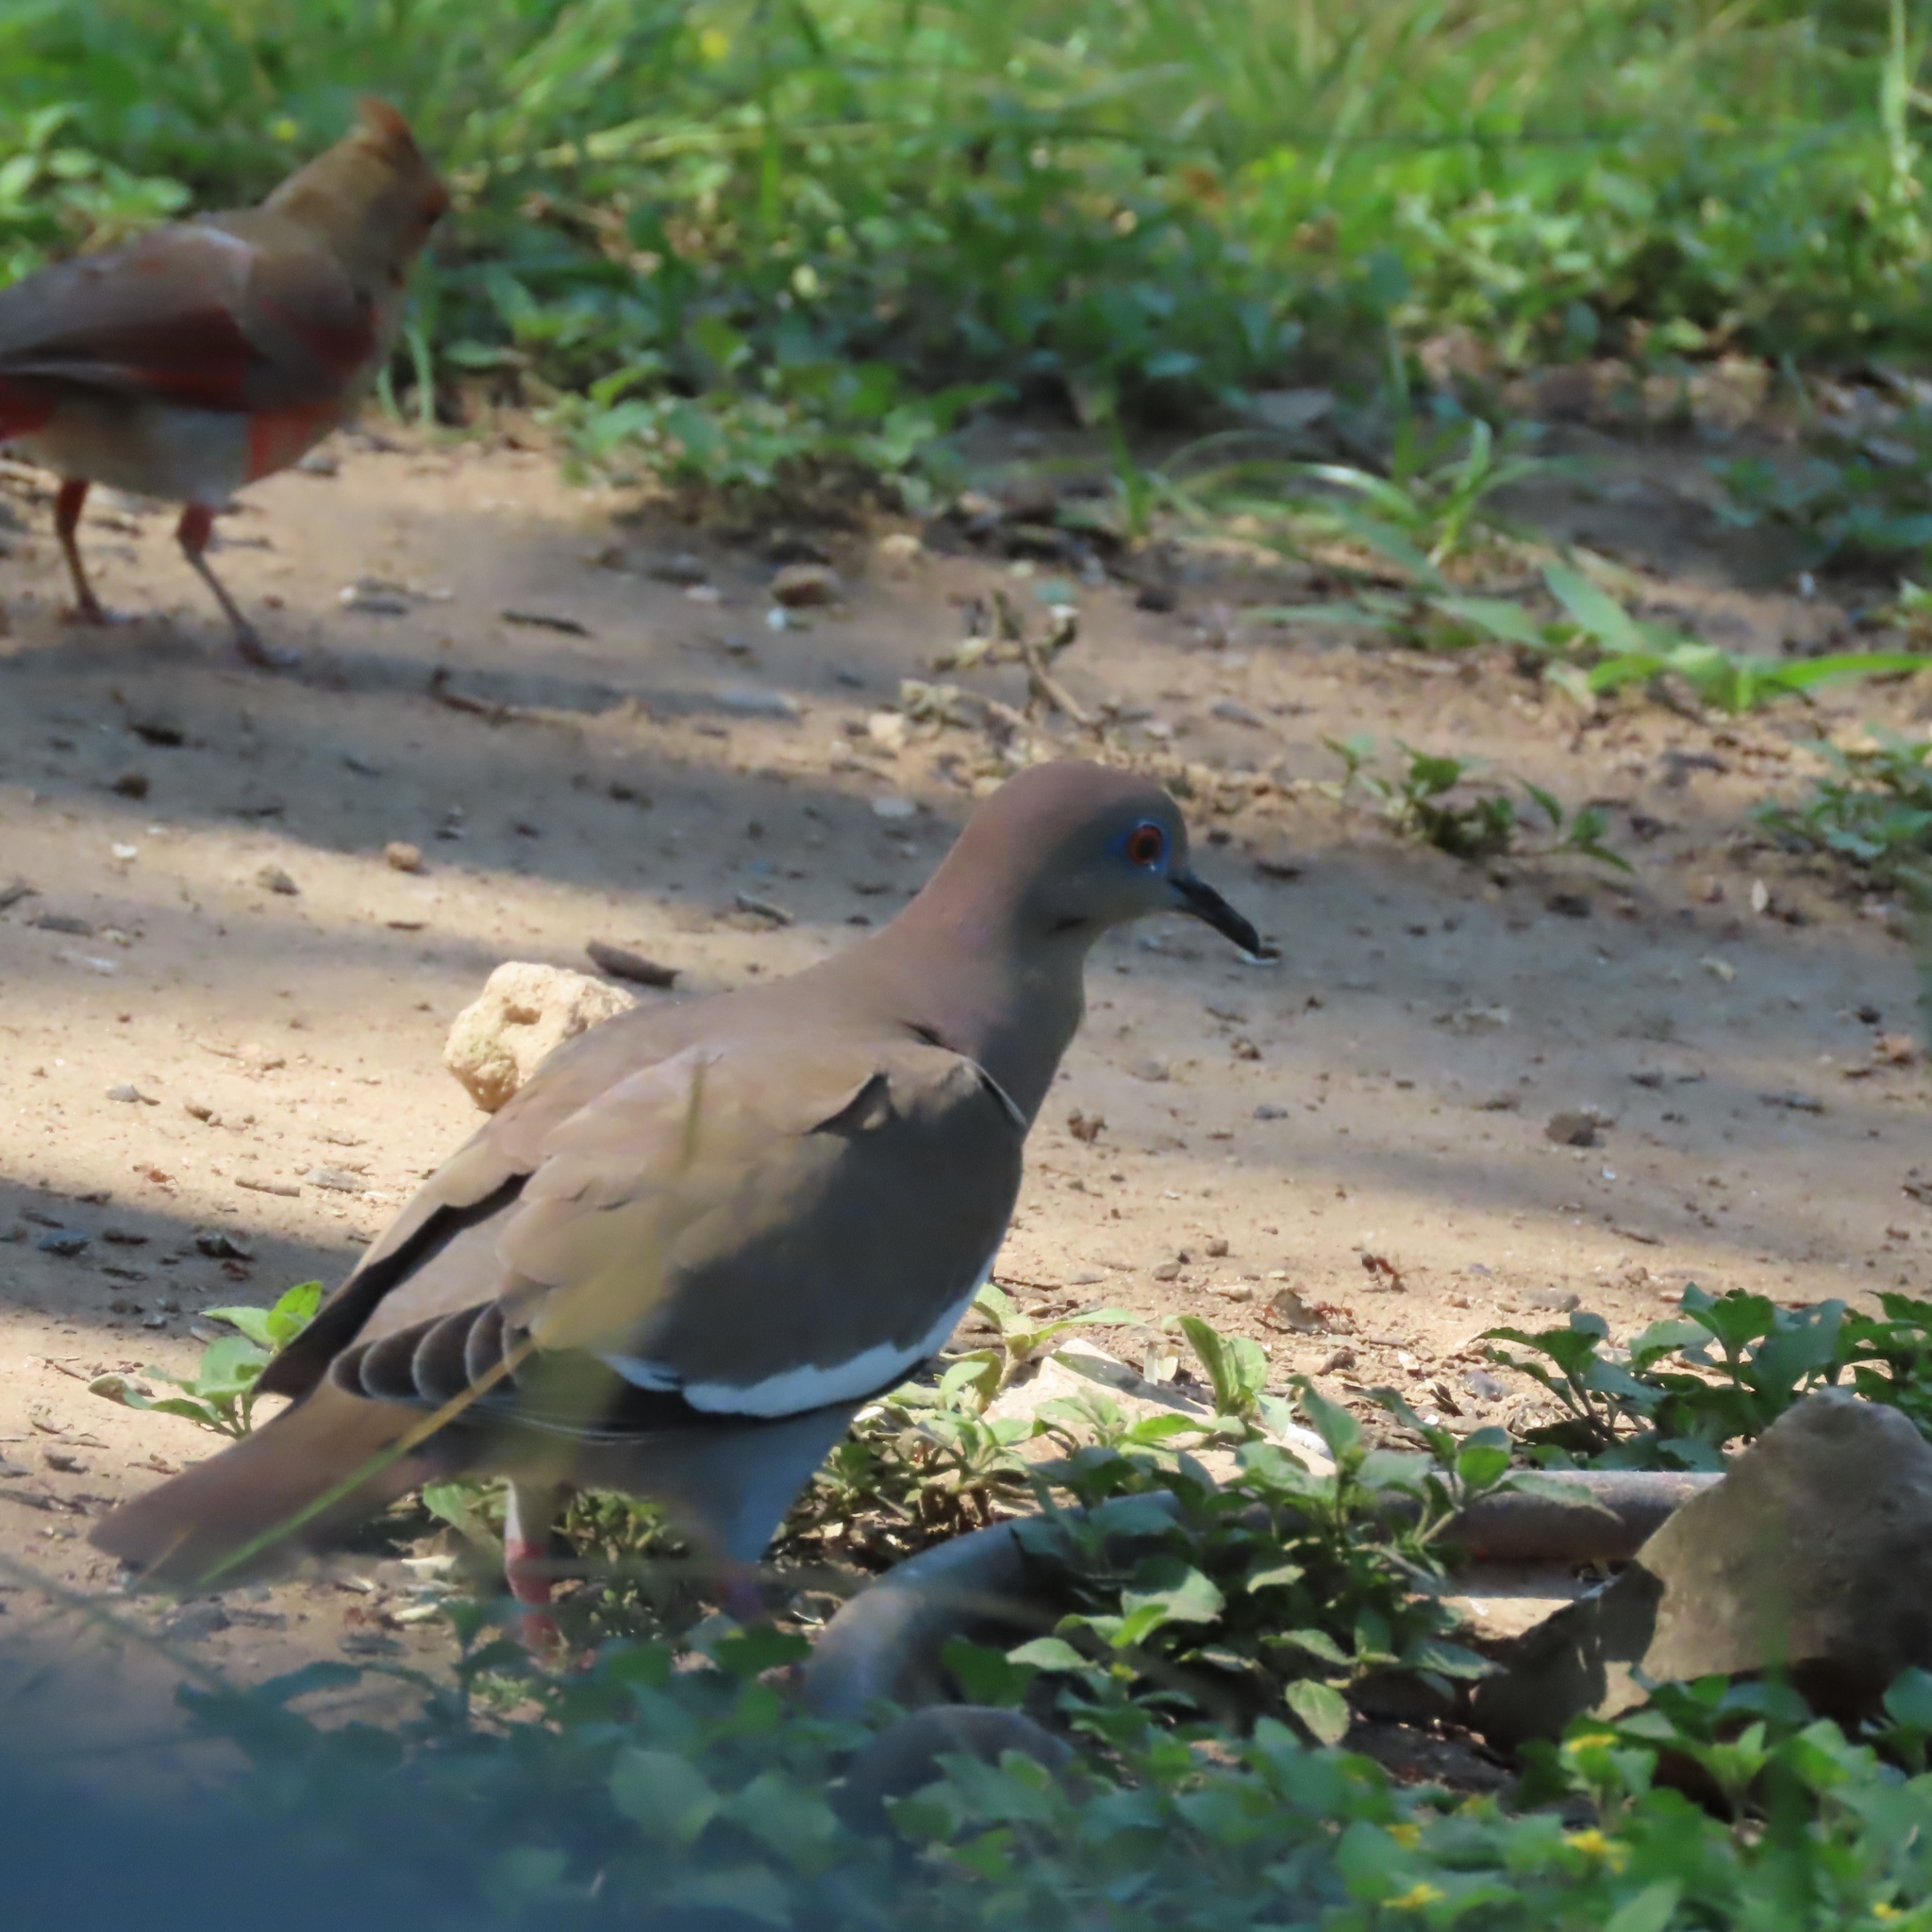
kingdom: Animalia
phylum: Chordata
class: Aves
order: Columbiformes
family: Columbidae
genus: Zenaida
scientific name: Zenaida asiatica
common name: White-winged dove
